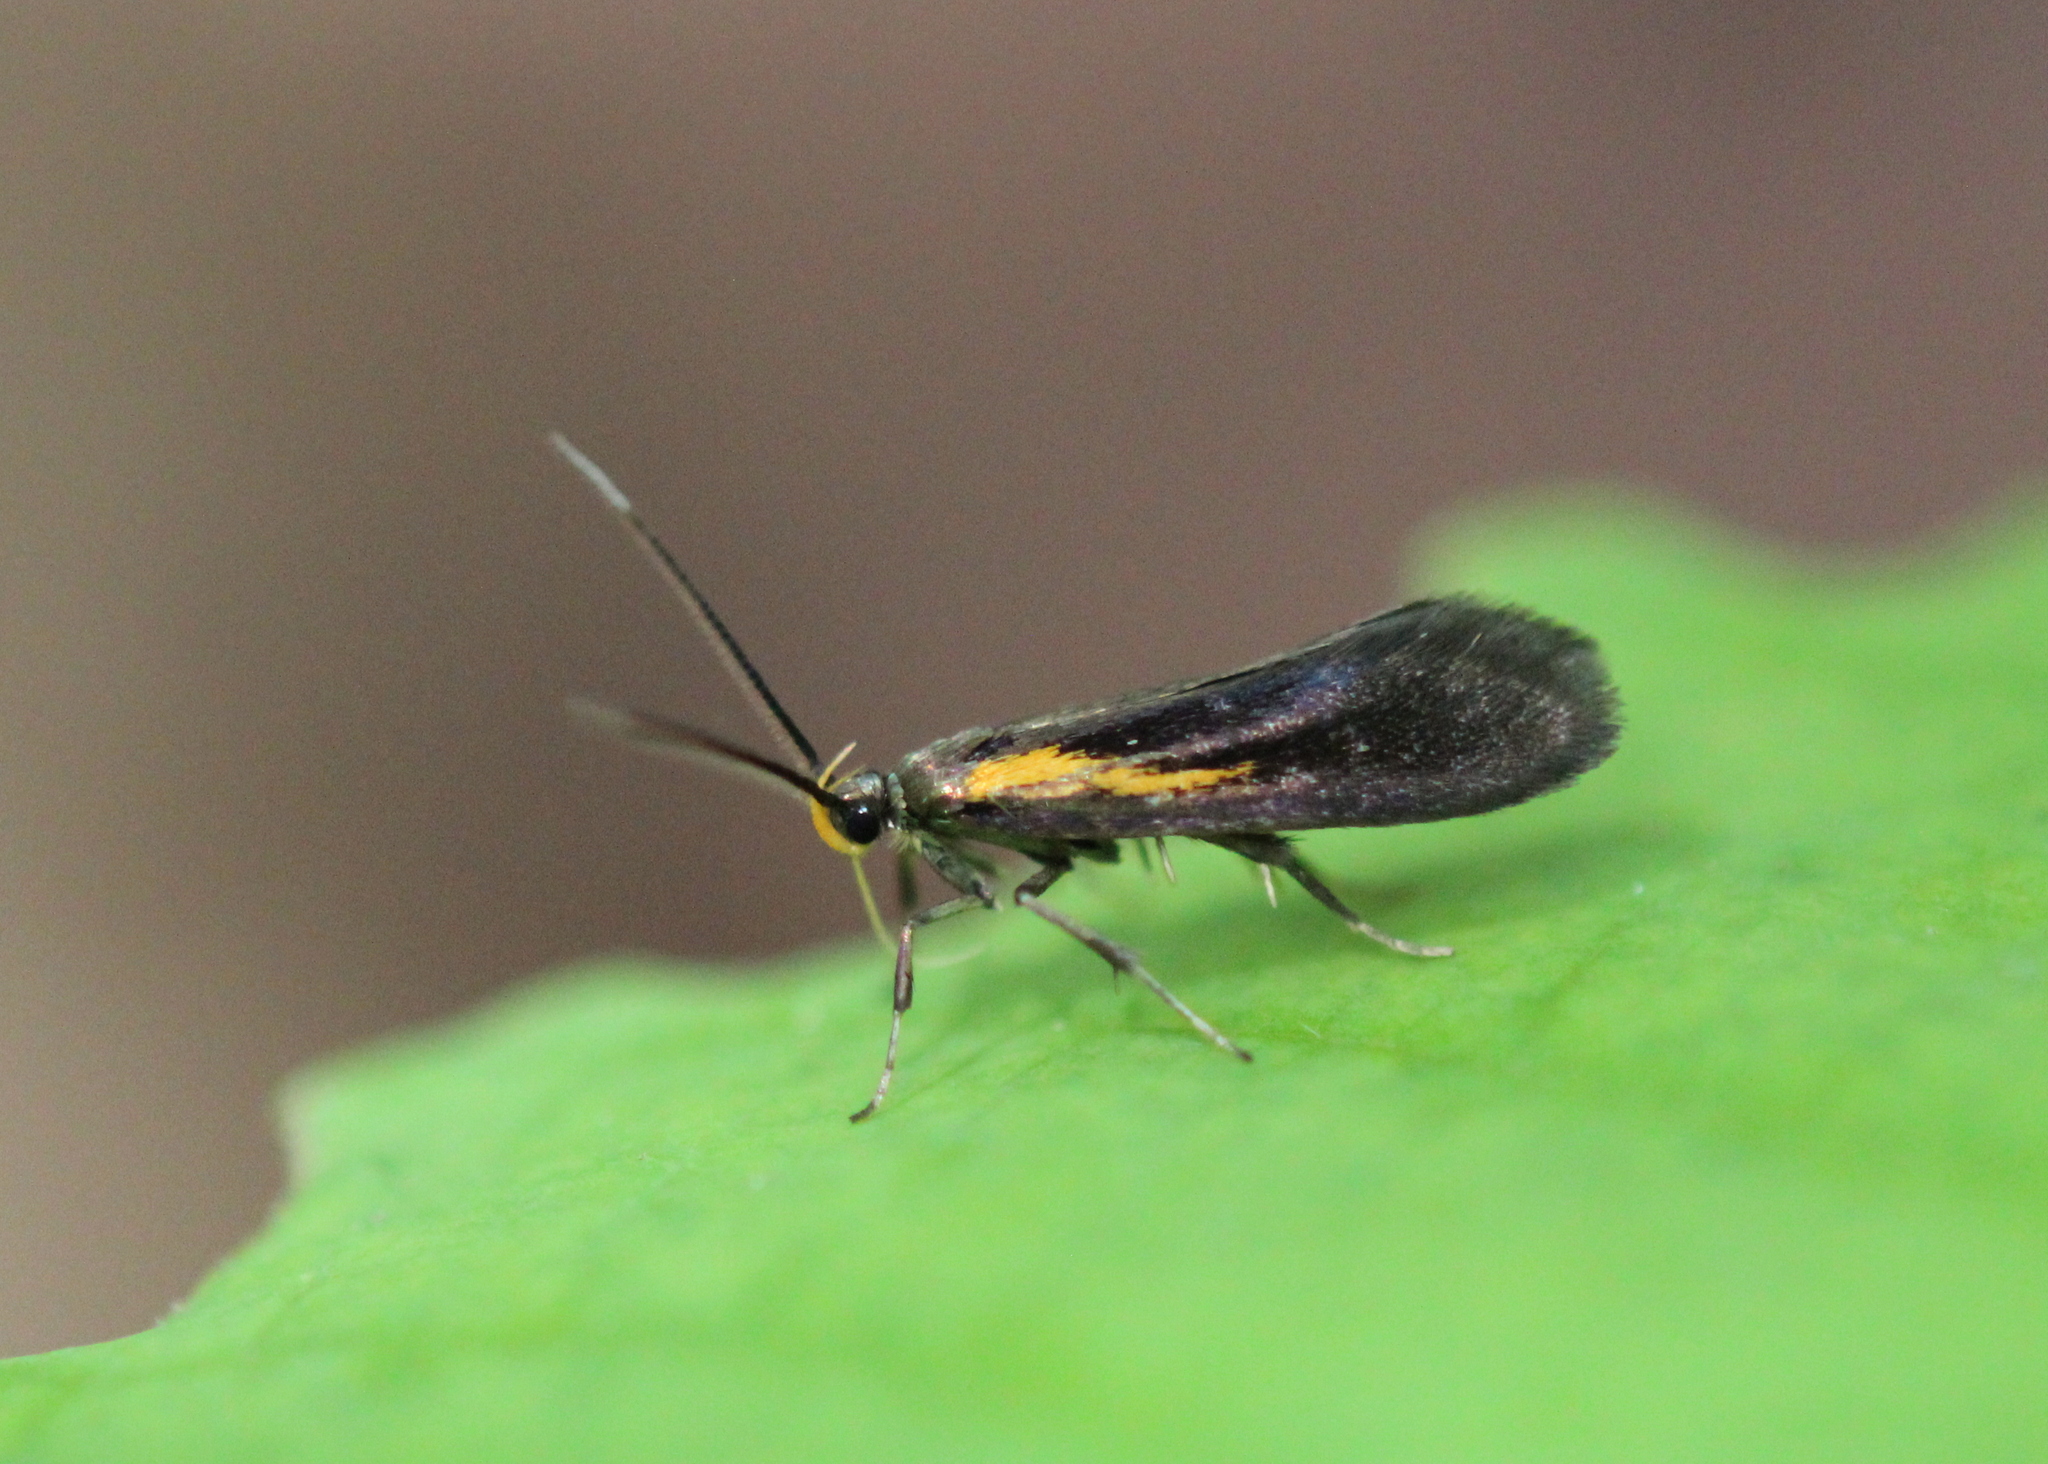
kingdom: Animalia
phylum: Arthropoda
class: Insecta
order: Lepidoptera
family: Oecophoridae
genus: Mathildana
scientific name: Mathildana newmanella
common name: Newman's mathildana moth
